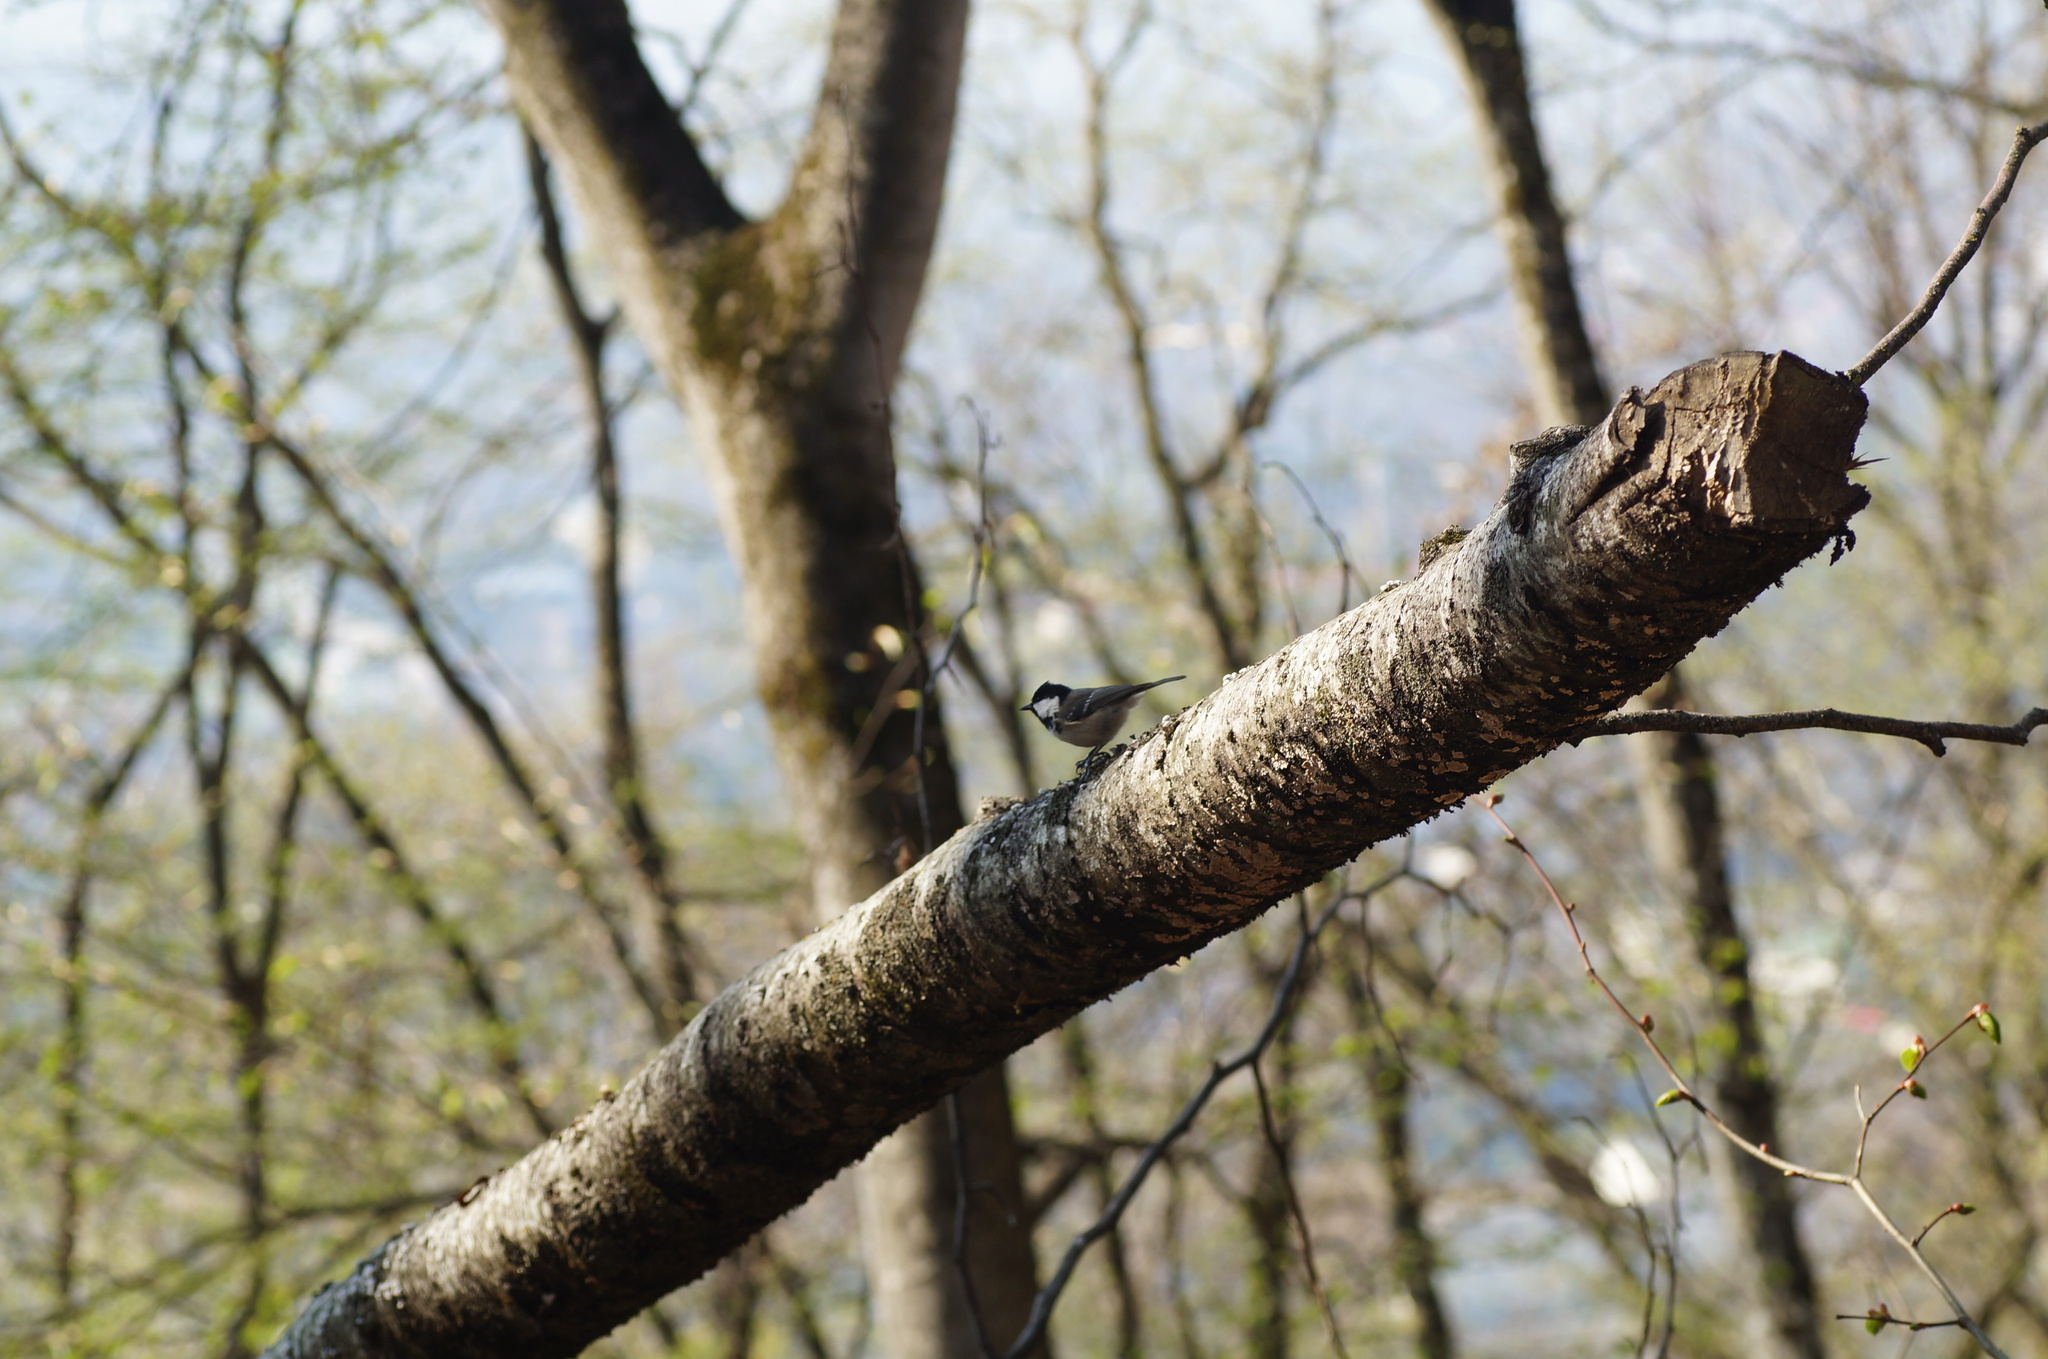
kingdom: Animalia
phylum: Chordata
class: Aves
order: Passeriformes
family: Paridae
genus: Periparus
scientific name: Periparus ater
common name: Coal tit
